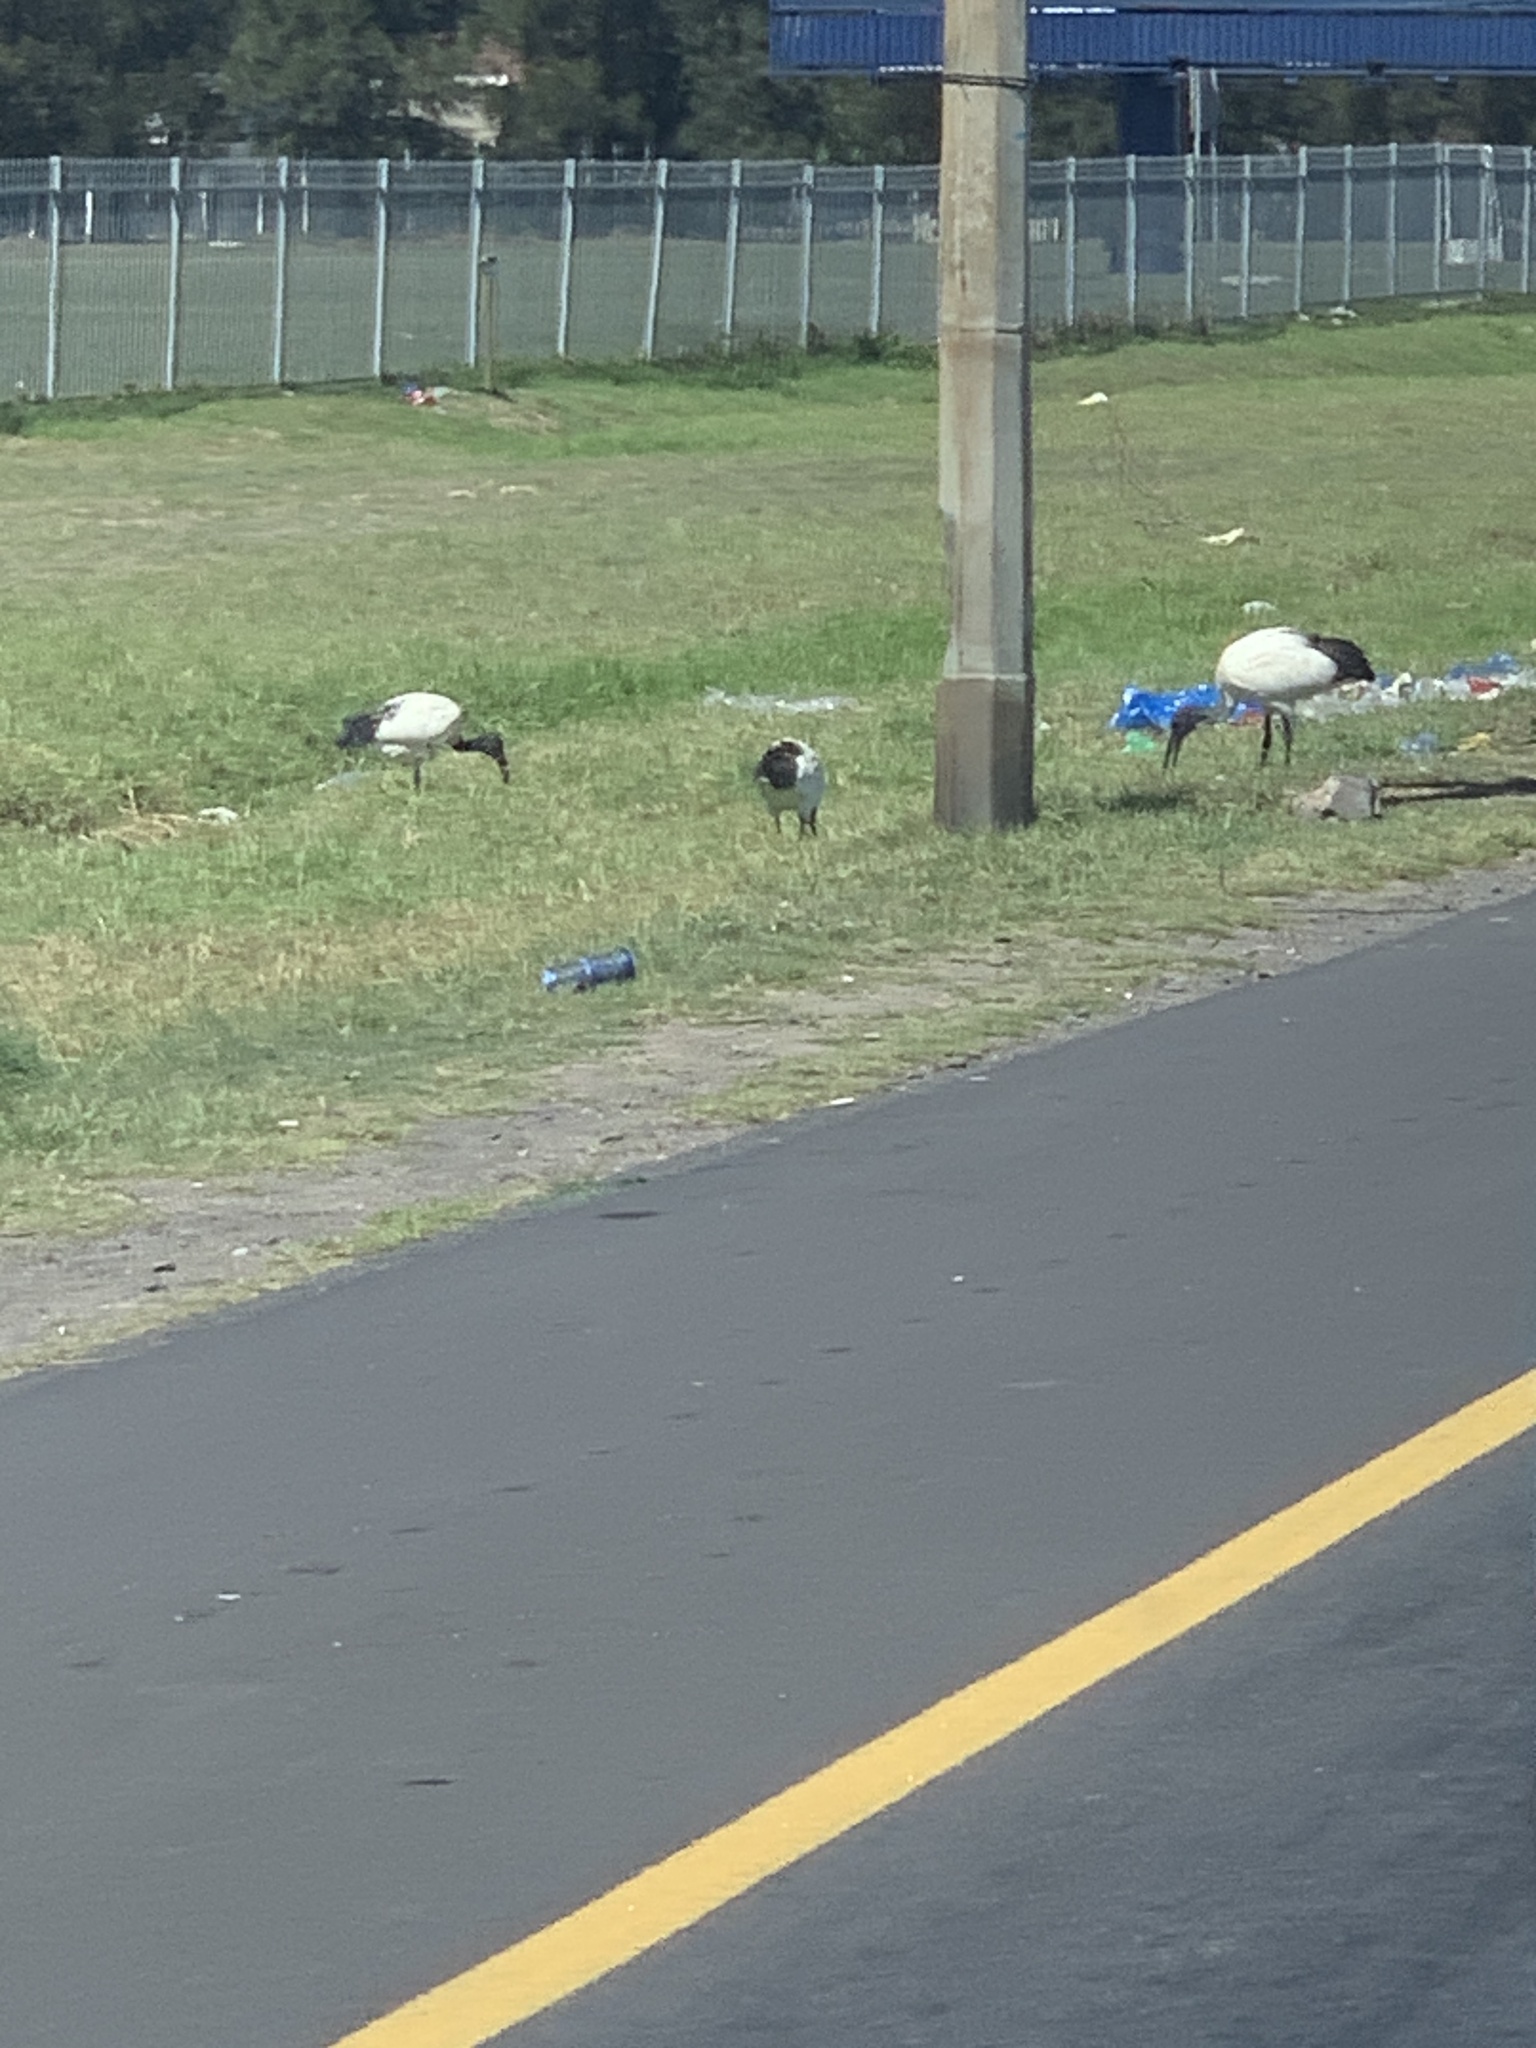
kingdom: Animalia
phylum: Chordata
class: Aves
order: Pelecaniformes
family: Threskiornithidae
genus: Threskiornis
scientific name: Threskiornis aethiopicus
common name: Sacred ibis
